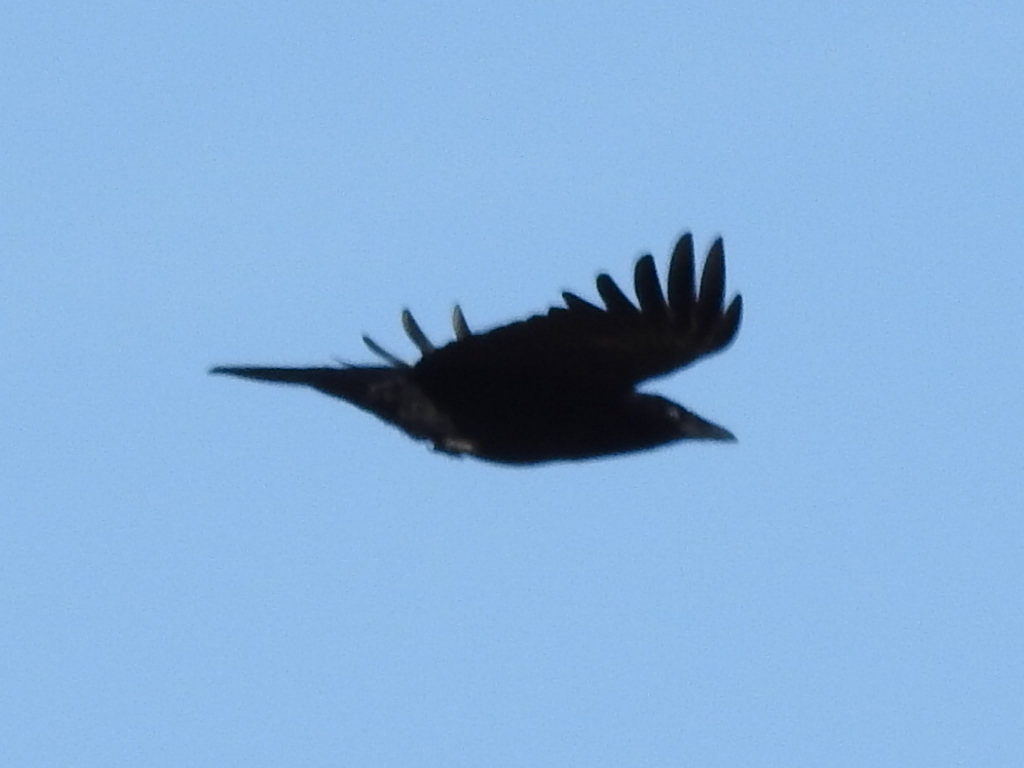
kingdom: Animalia
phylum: Chordata
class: Aves
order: Passeriformes
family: Corvidae
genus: Corvus
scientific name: Corvus brachyrhynchos
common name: American crow
